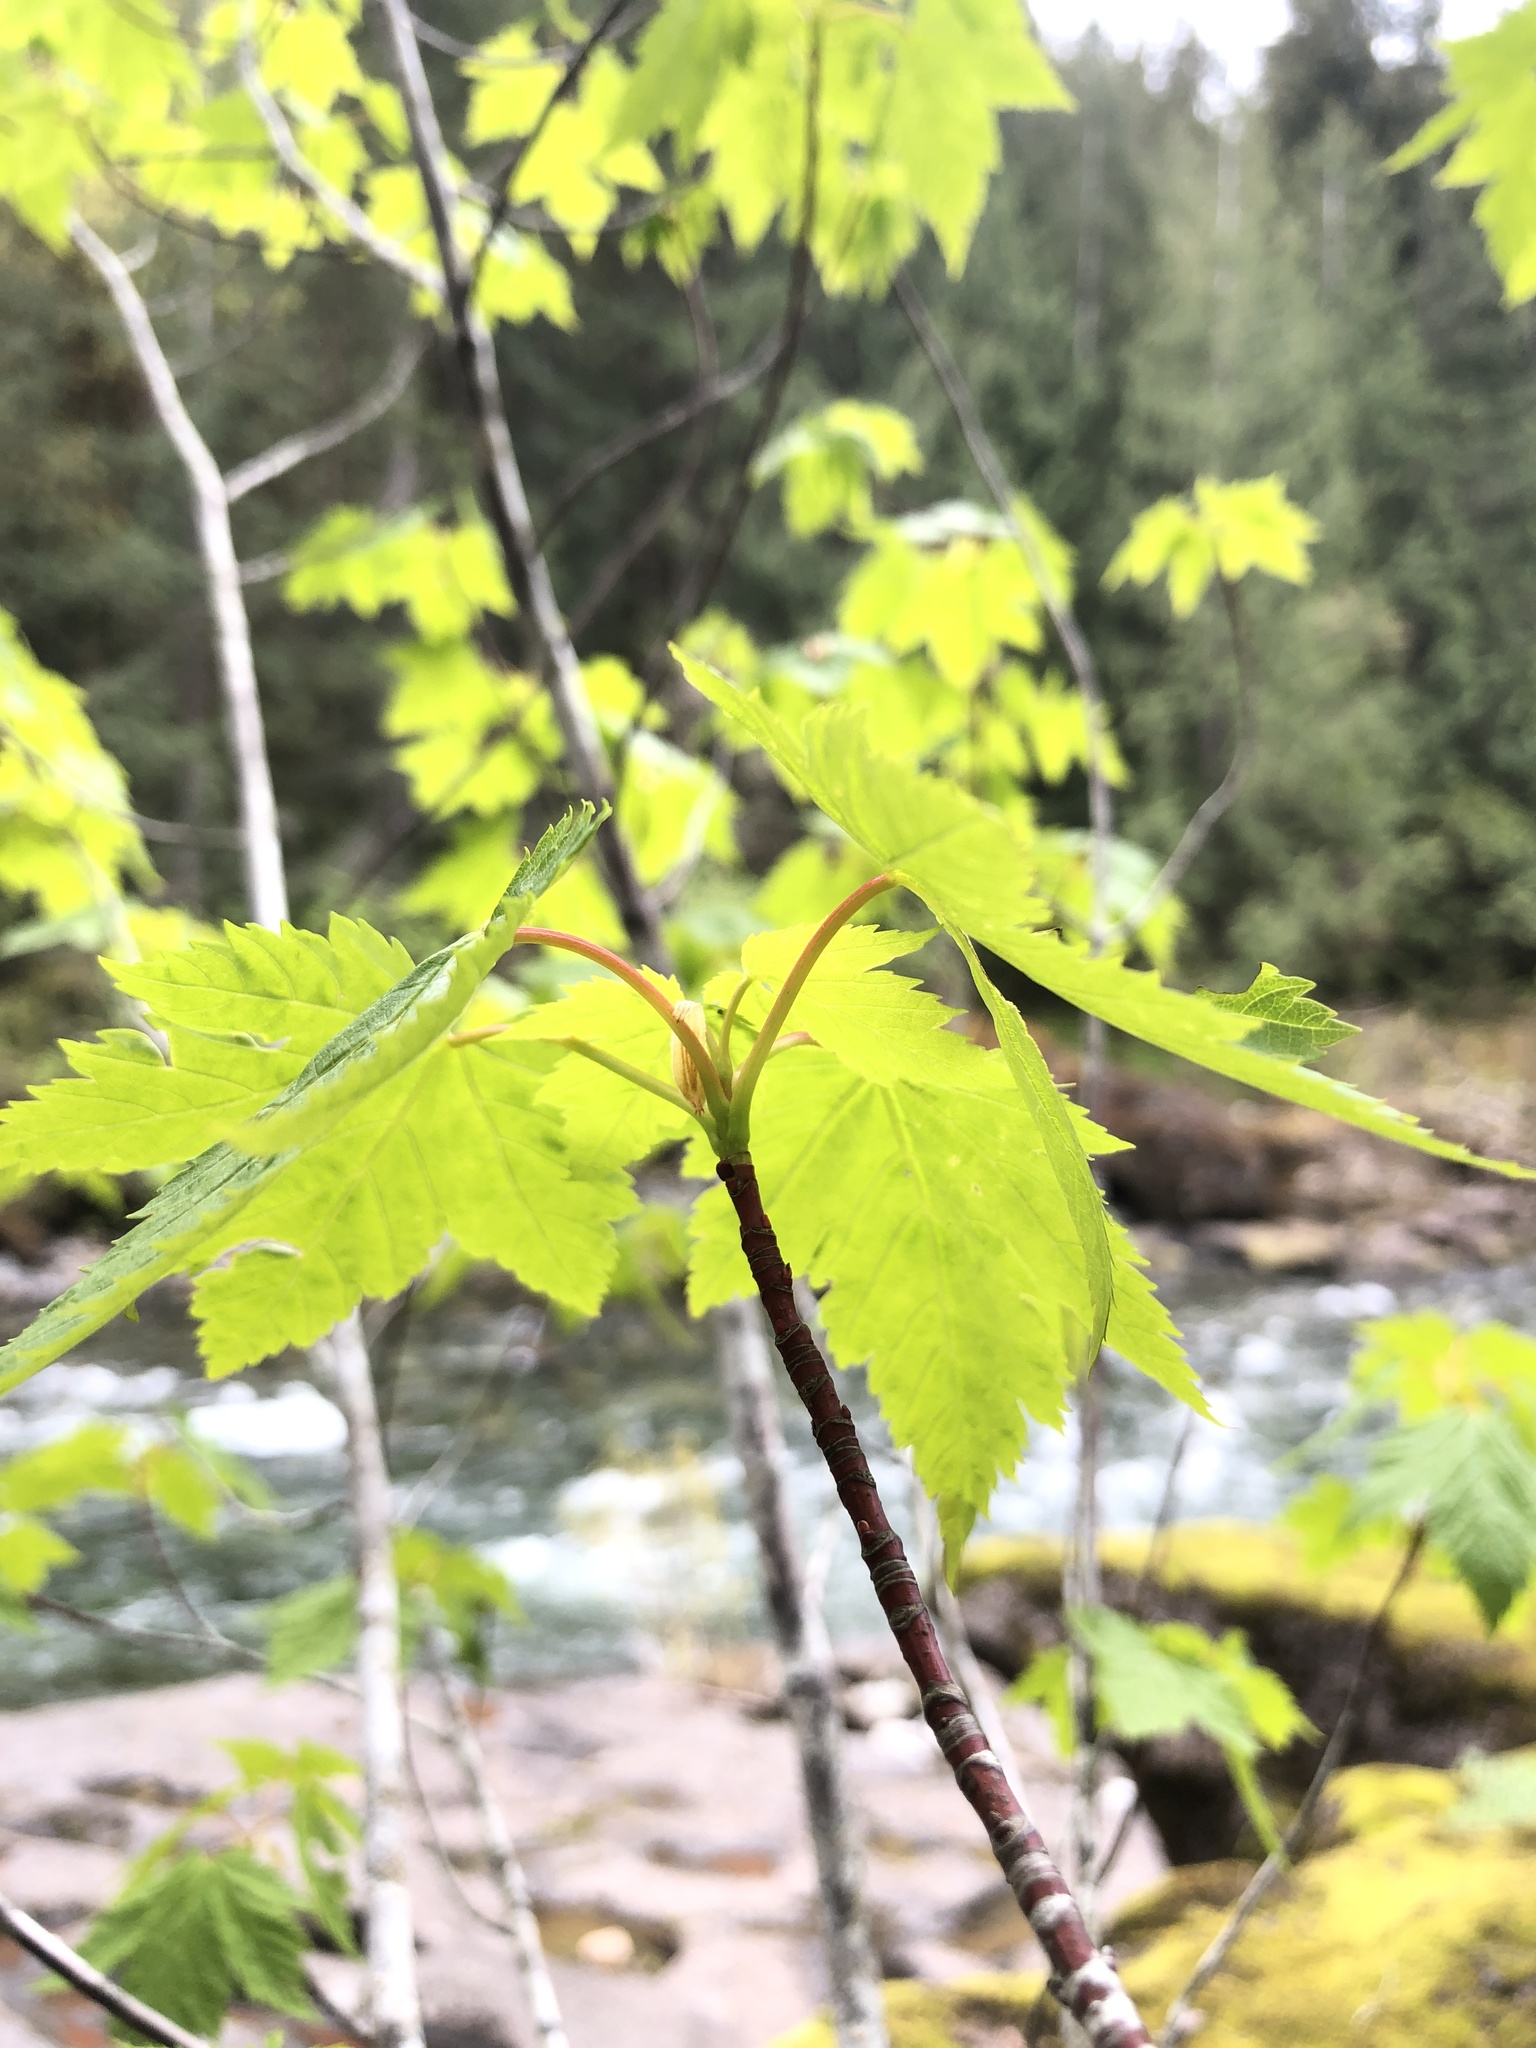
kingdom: Plantae
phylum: Tracheophyta
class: Magnoliopsida
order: Sapindales
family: Sapindaceae
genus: Acer
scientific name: Acer glabrum
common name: Rocky mountain maple
